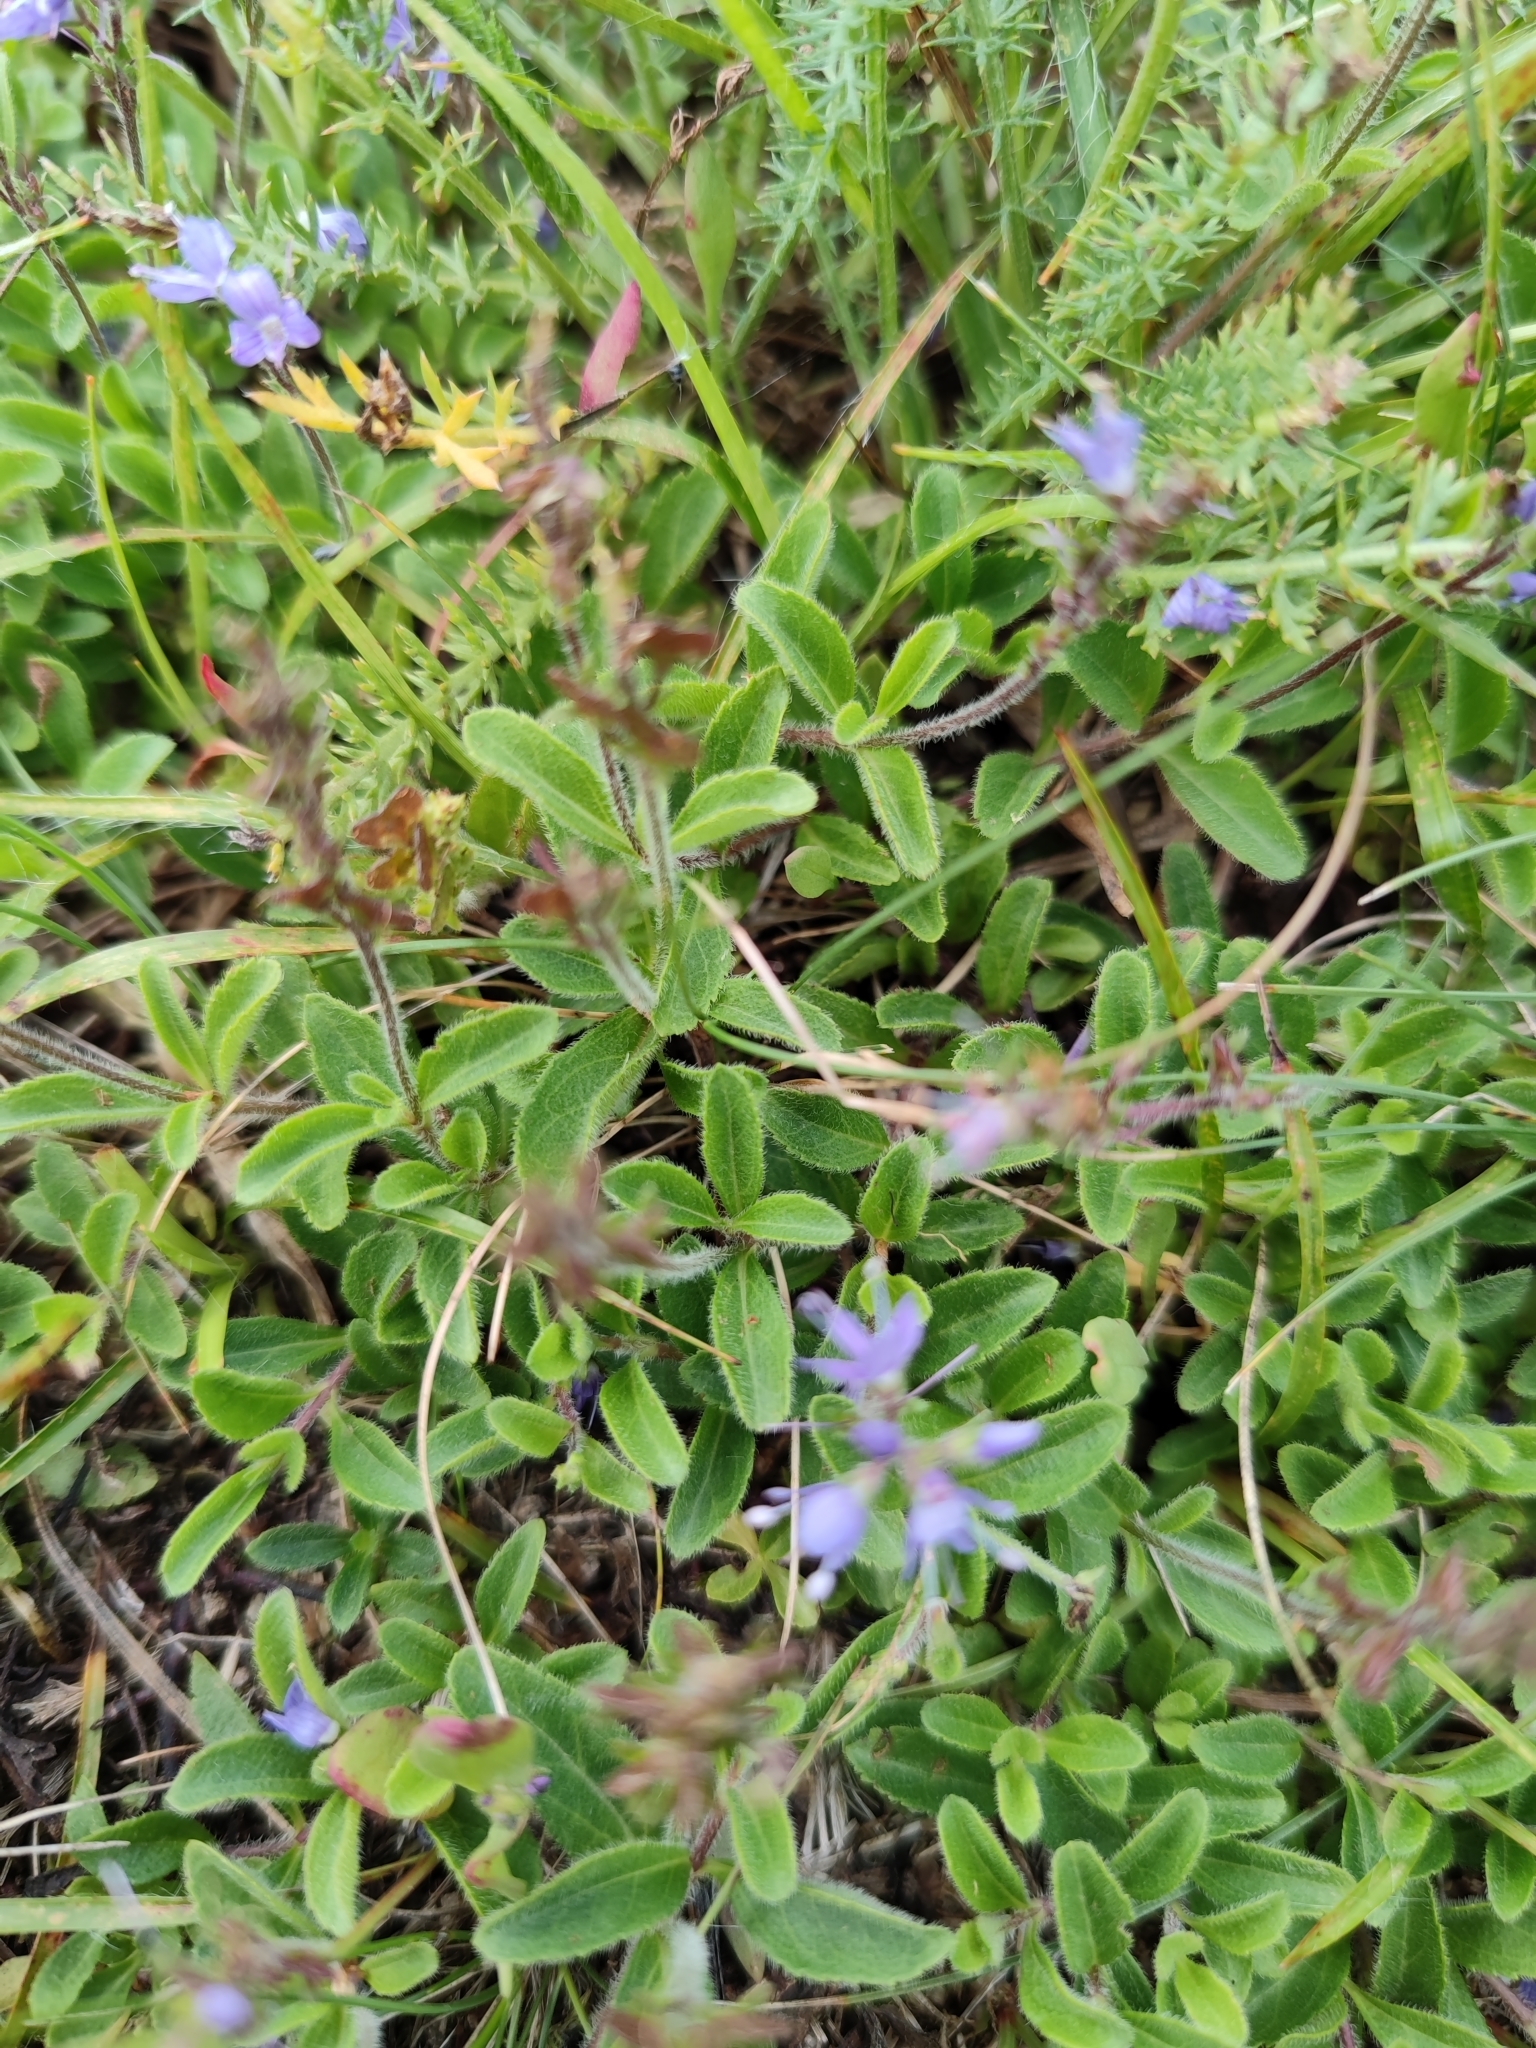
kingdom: Plantae
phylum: Tracheophyta
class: Magnoliopsida
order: Lamiales
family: Plantaginaceae
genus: Veronica
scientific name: Veronica officinalis
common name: Common speedwell
